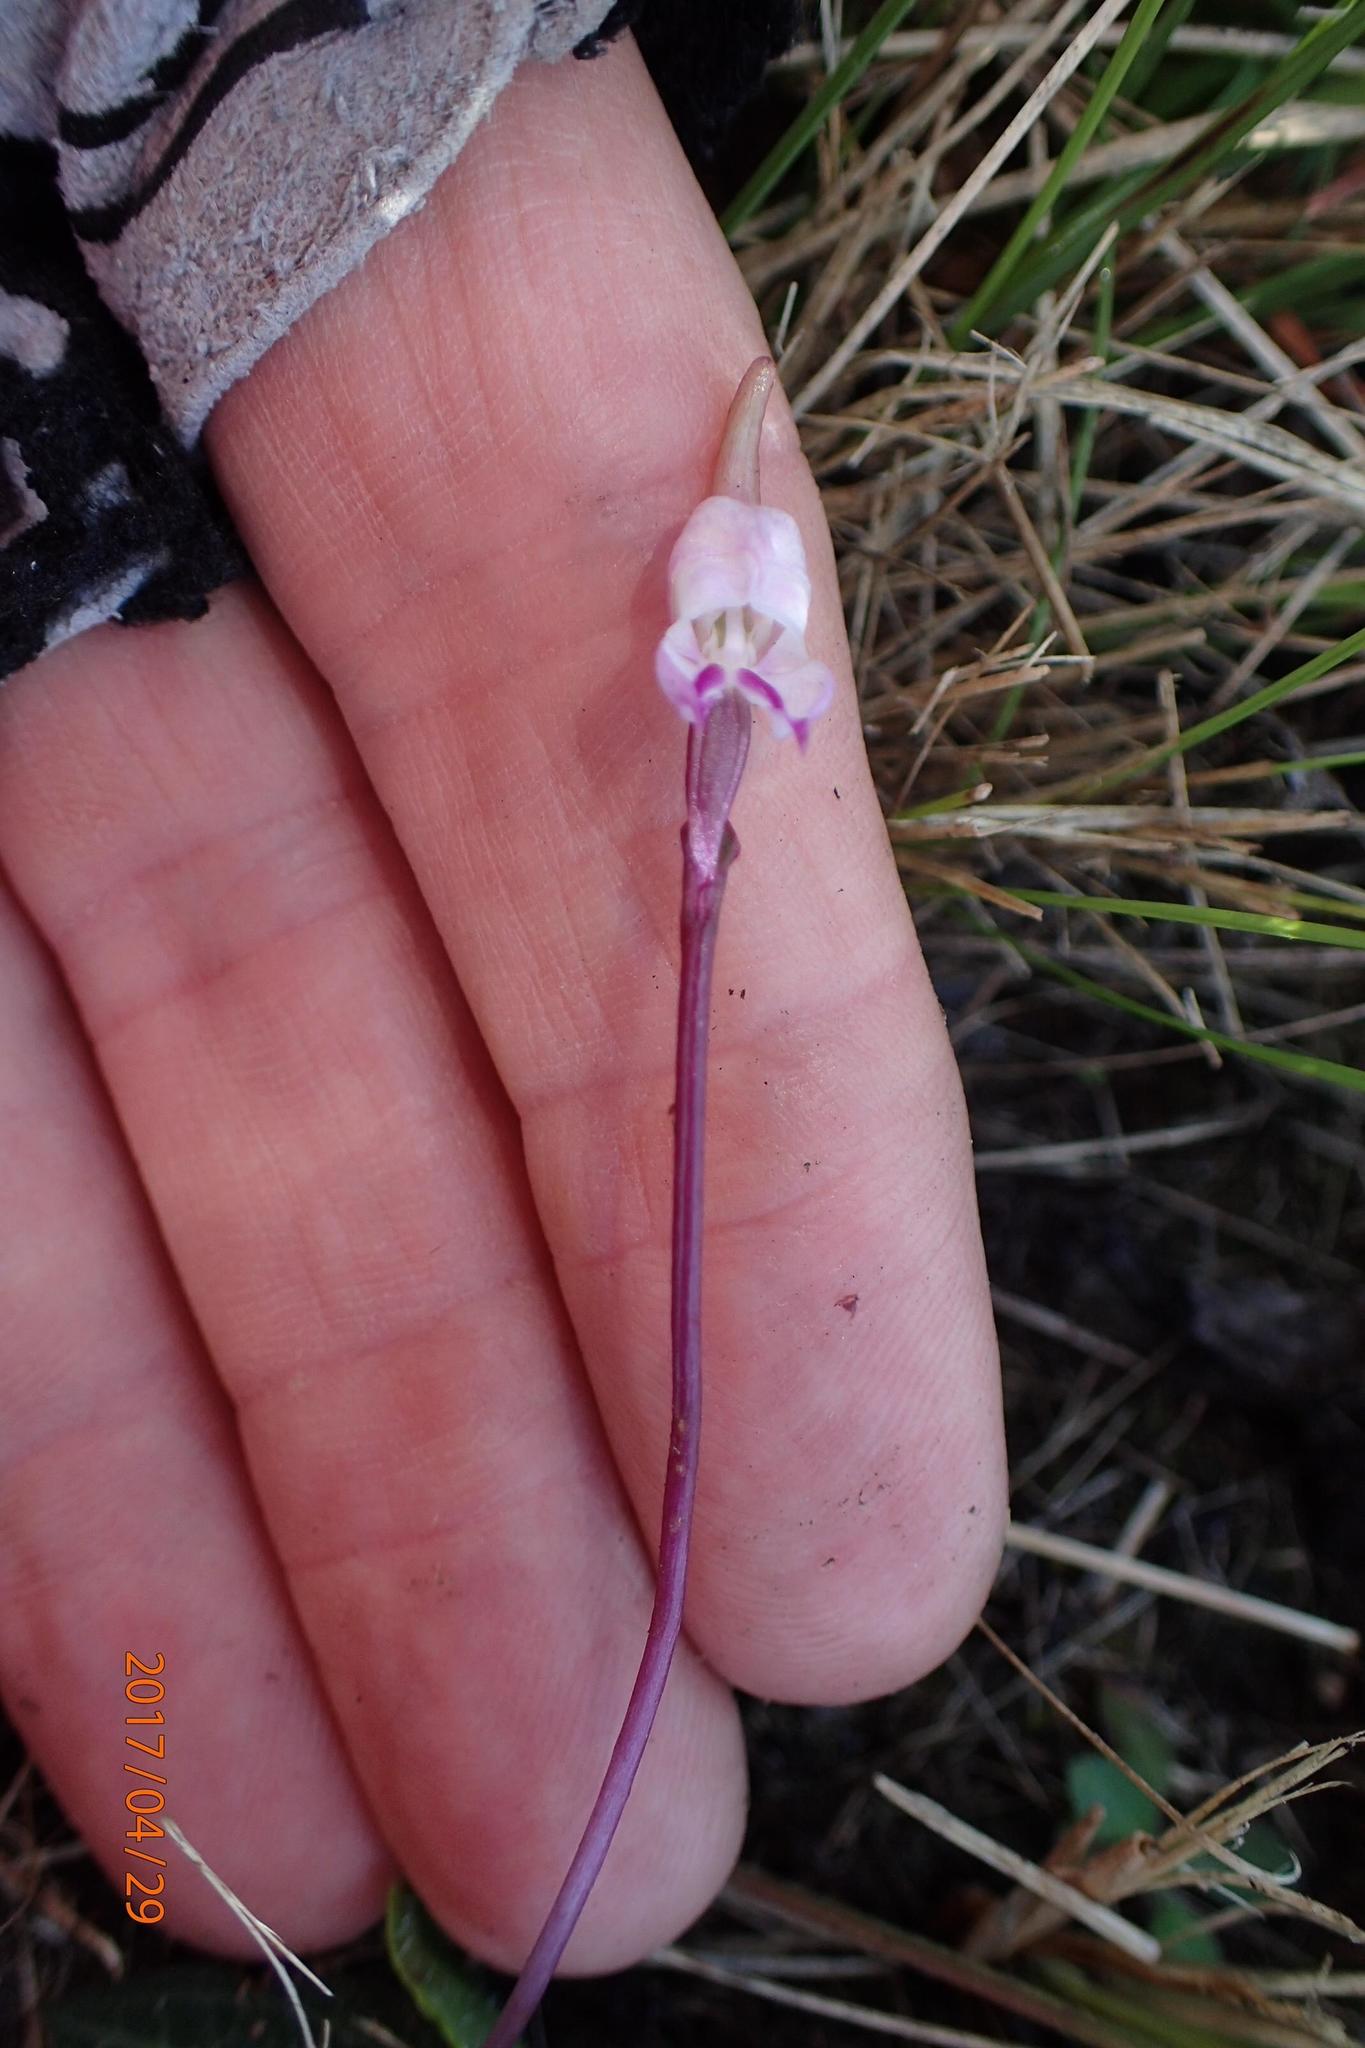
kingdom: Plantae
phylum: Tracheophyta
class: Liliopsida
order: Asparagales
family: Orchidaceae
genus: Disperis
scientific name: Disperis woodii
